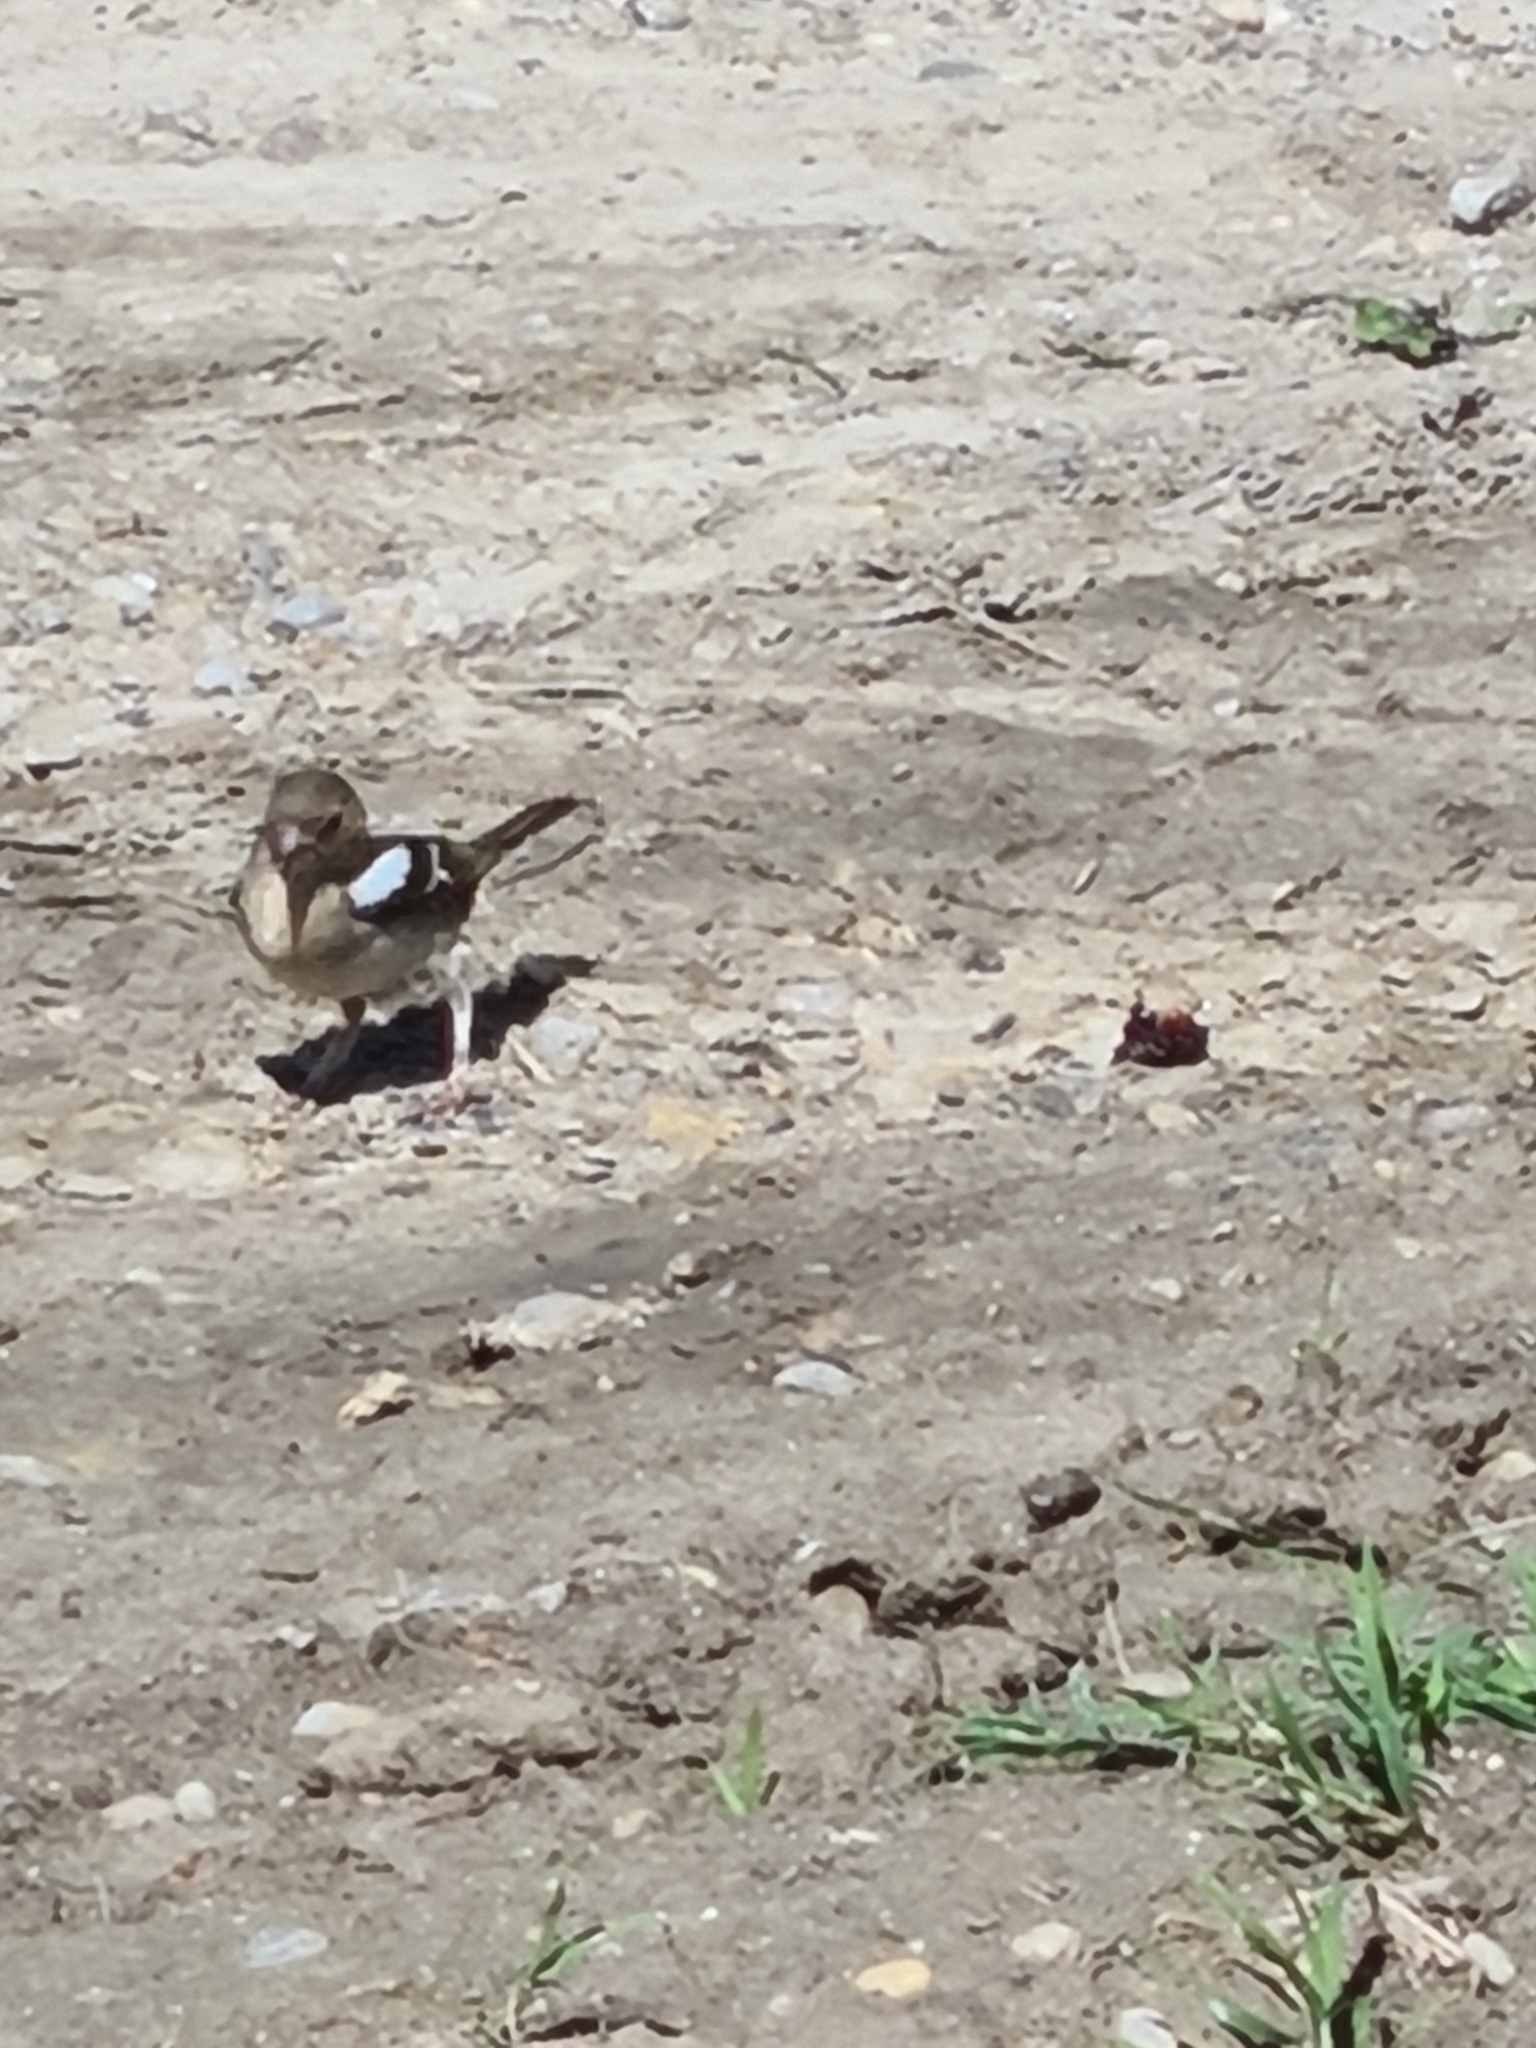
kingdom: Animalia
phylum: Chordata
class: Aves
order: Passeriformes
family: Fringillidae
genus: Fringilla
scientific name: Fringilla coelebs
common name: Common chaffinch
